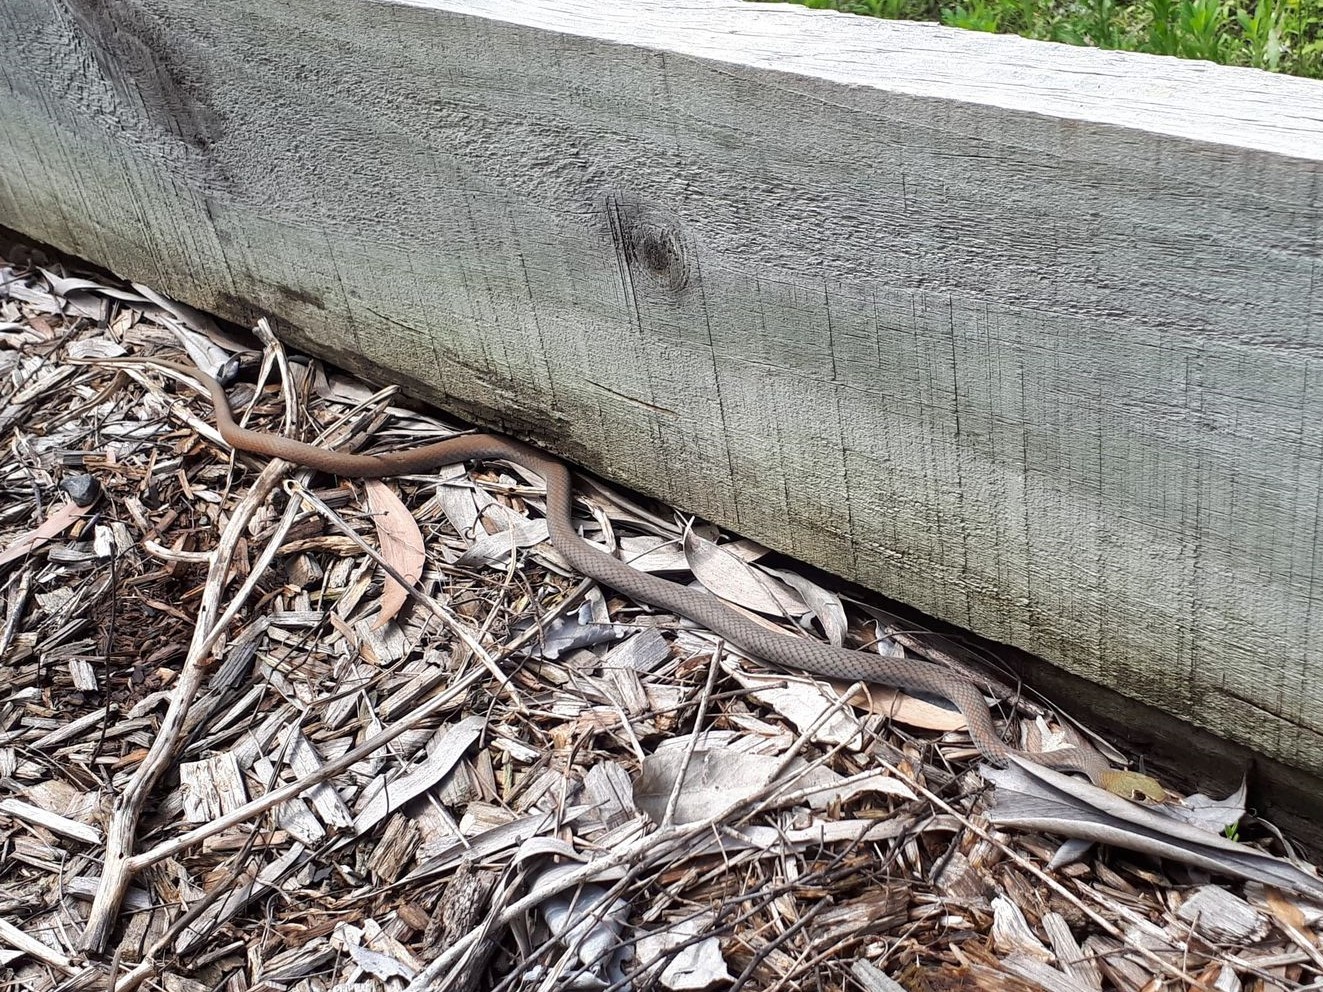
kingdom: Animalia
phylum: Chordata
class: Squamata
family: Elapidae
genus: Demansia
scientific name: Demansia psammophis
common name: Yellow-faced whip snake
